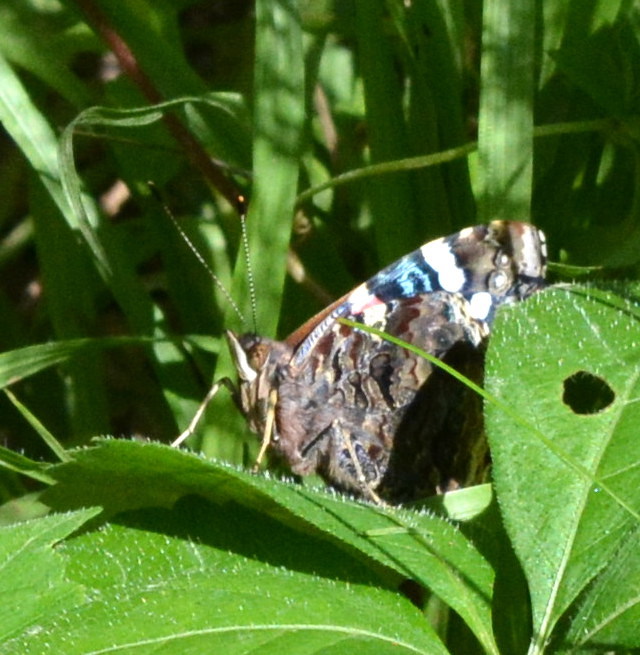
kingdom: Animalia
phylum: Arthropoda
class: Insecta
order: Lepidoptera
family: Nymphalidae
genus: Vanessa
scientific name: Vanessa atalanta
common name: Red admiral
